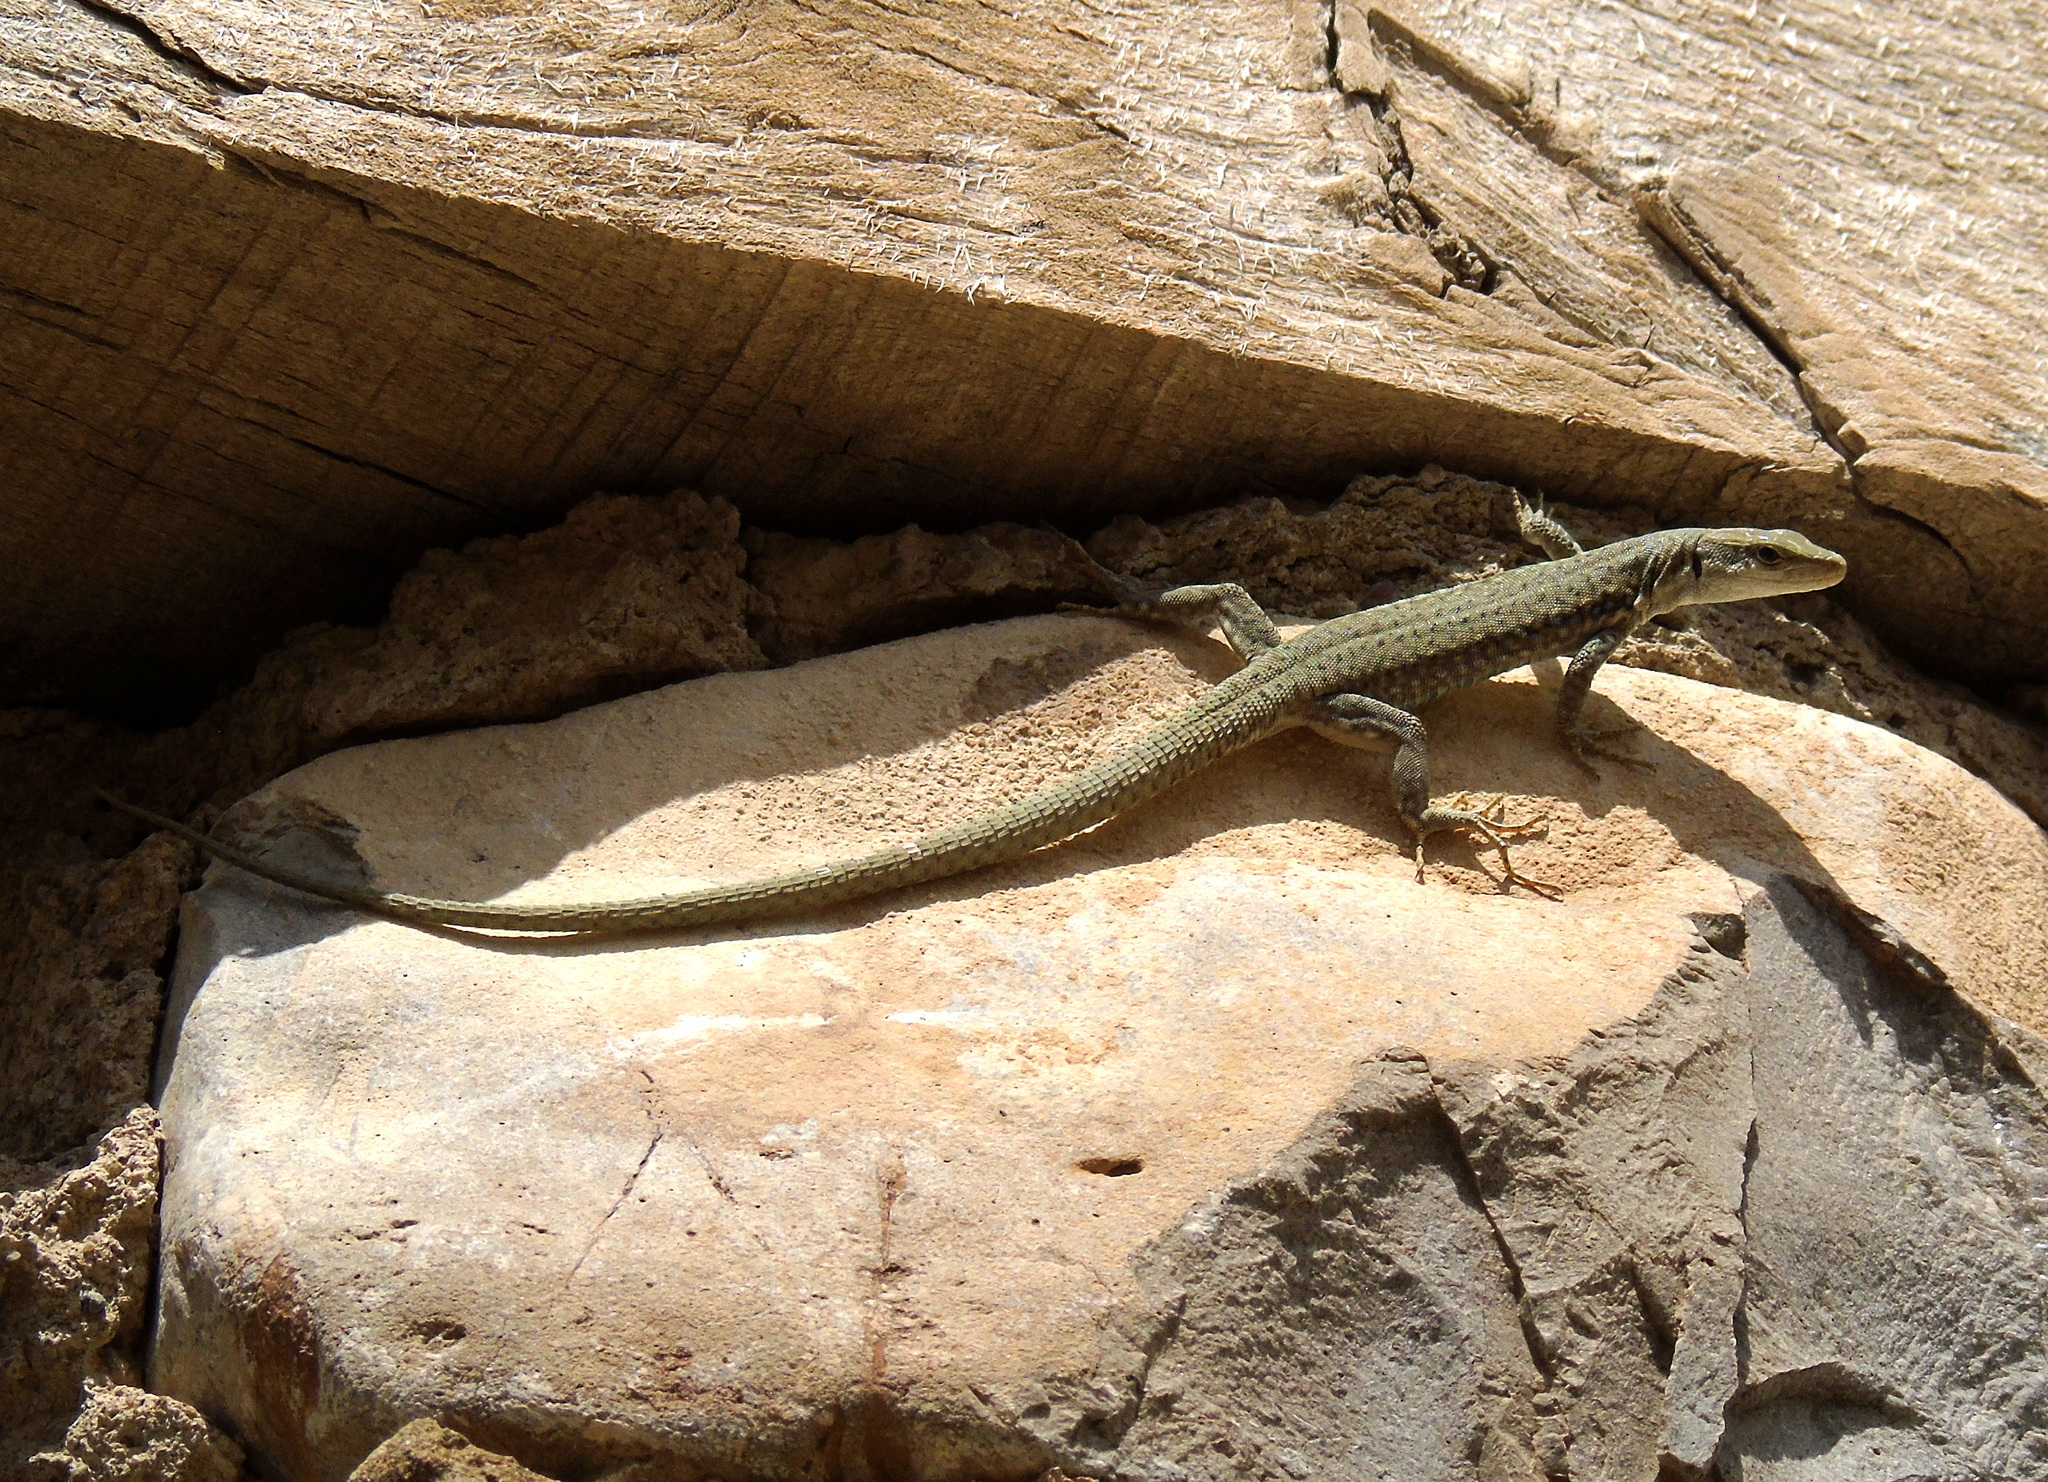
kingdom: Animalia
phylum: Chordata
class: Squamata
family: Lacertidae
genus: Darevskia
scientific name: Darevskia raddei
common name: Radde's lizard
